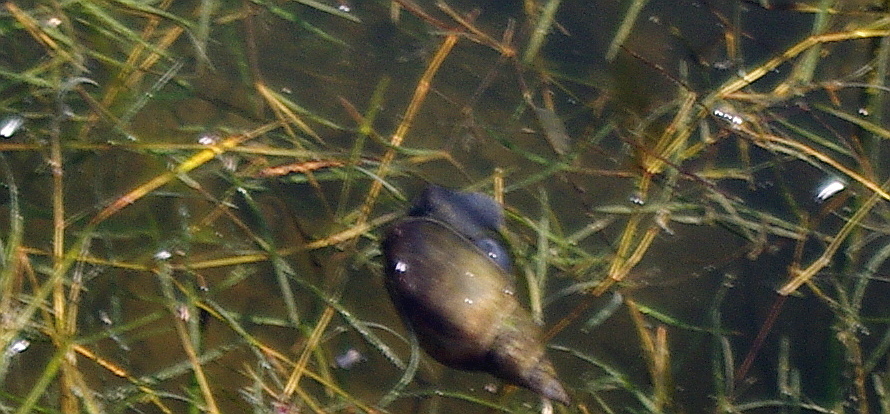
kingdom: Animalia
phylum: Mollusca
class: Gastropoda
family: Lymnaeidae
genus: Lymnaea
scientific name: Lymnaea stagnalis
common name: Great pond snail
